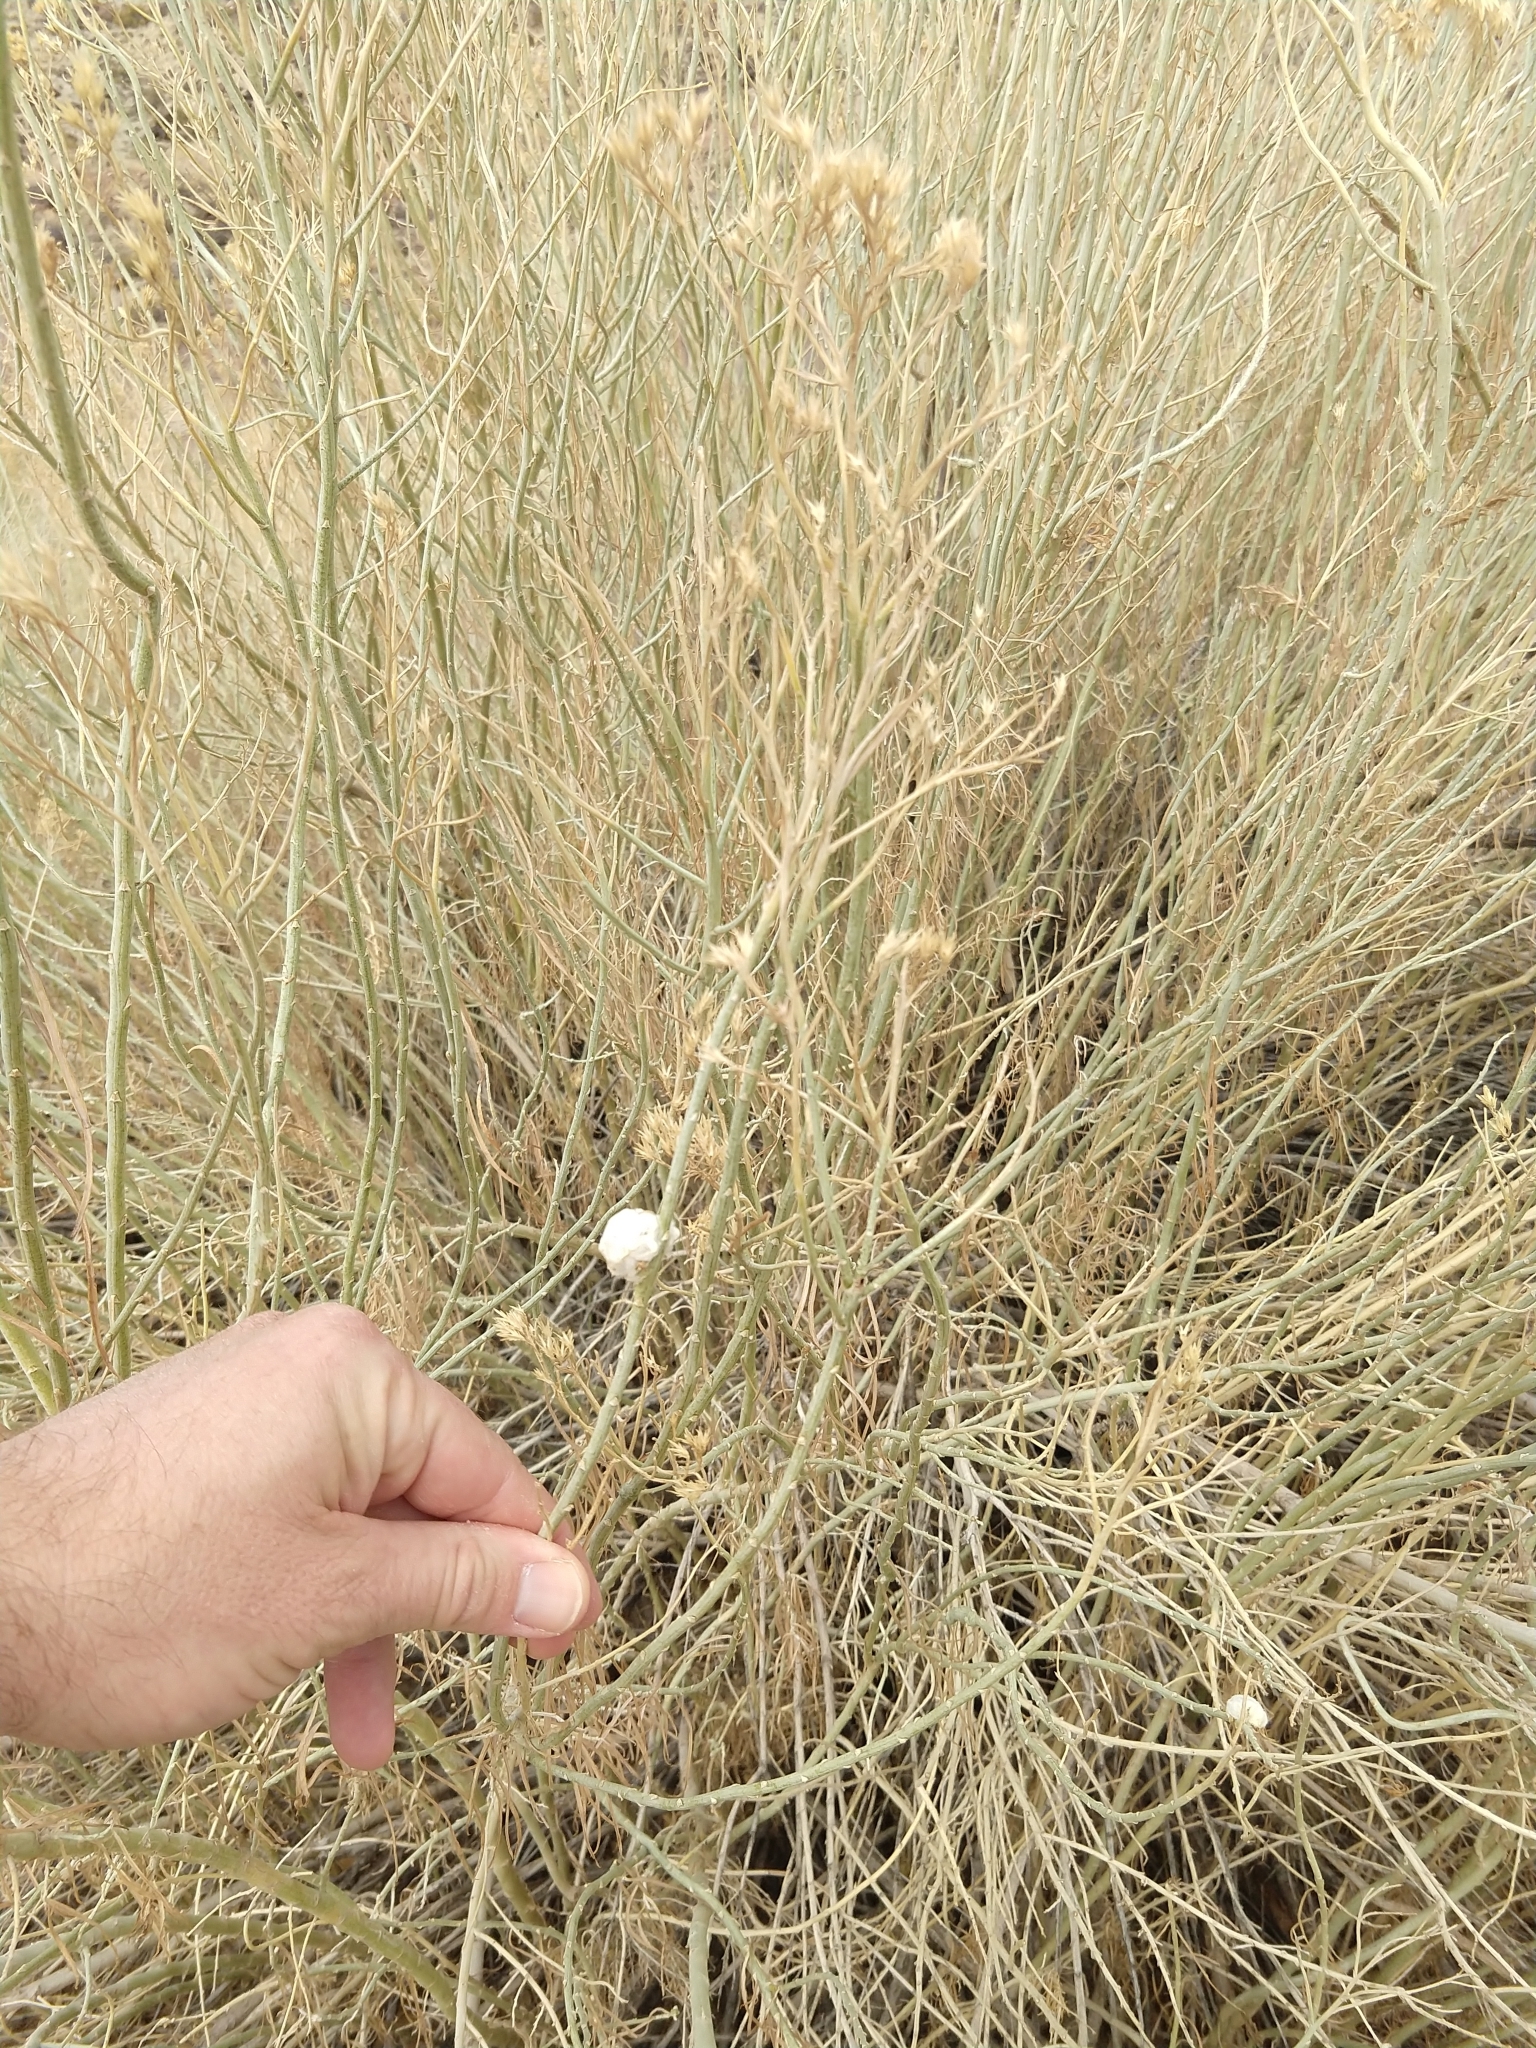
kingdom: Animalia
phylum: Arthropoda
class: Insecta
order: Diptera
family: Tephritidae
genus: Aciurina
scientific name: Aciurina bigeloviae
